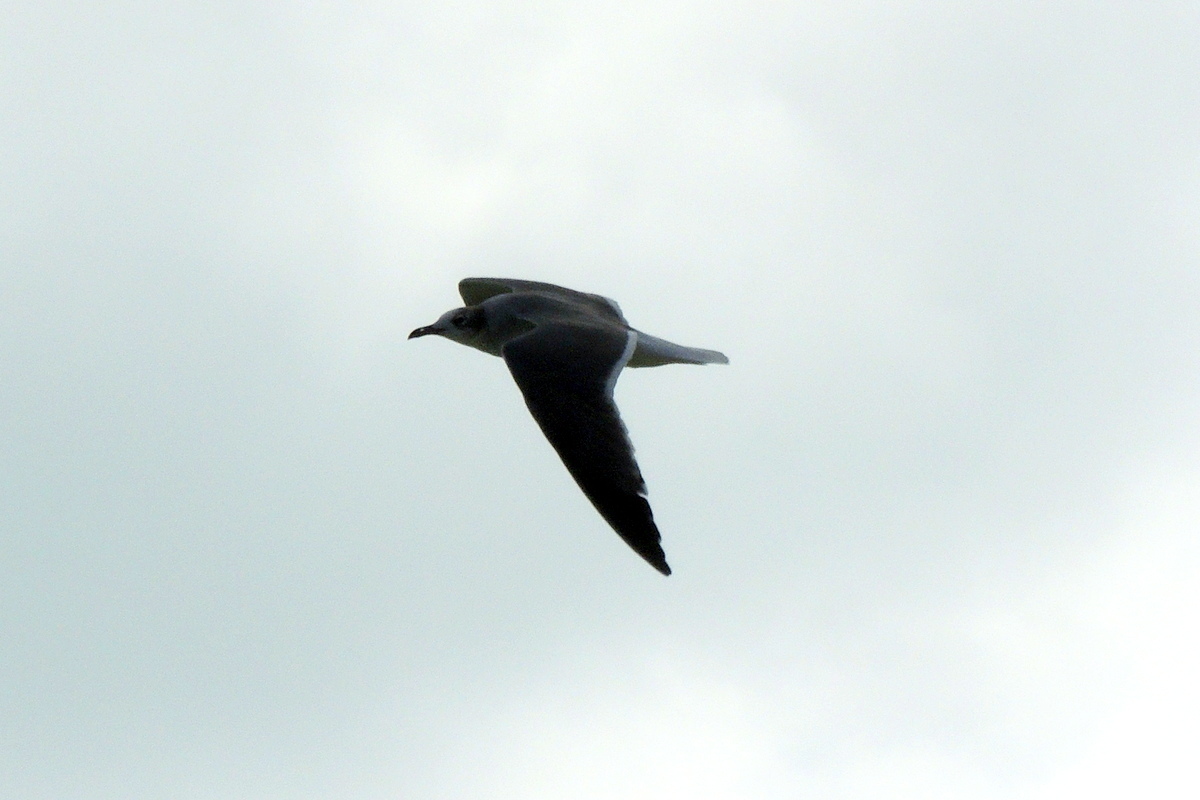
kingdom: Animalia
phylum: Chordata
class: Aves
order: Charadriiformes
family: Laridae
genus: Leucophaeus
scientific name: Leucophaeus atricilla
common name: Laughing gull
